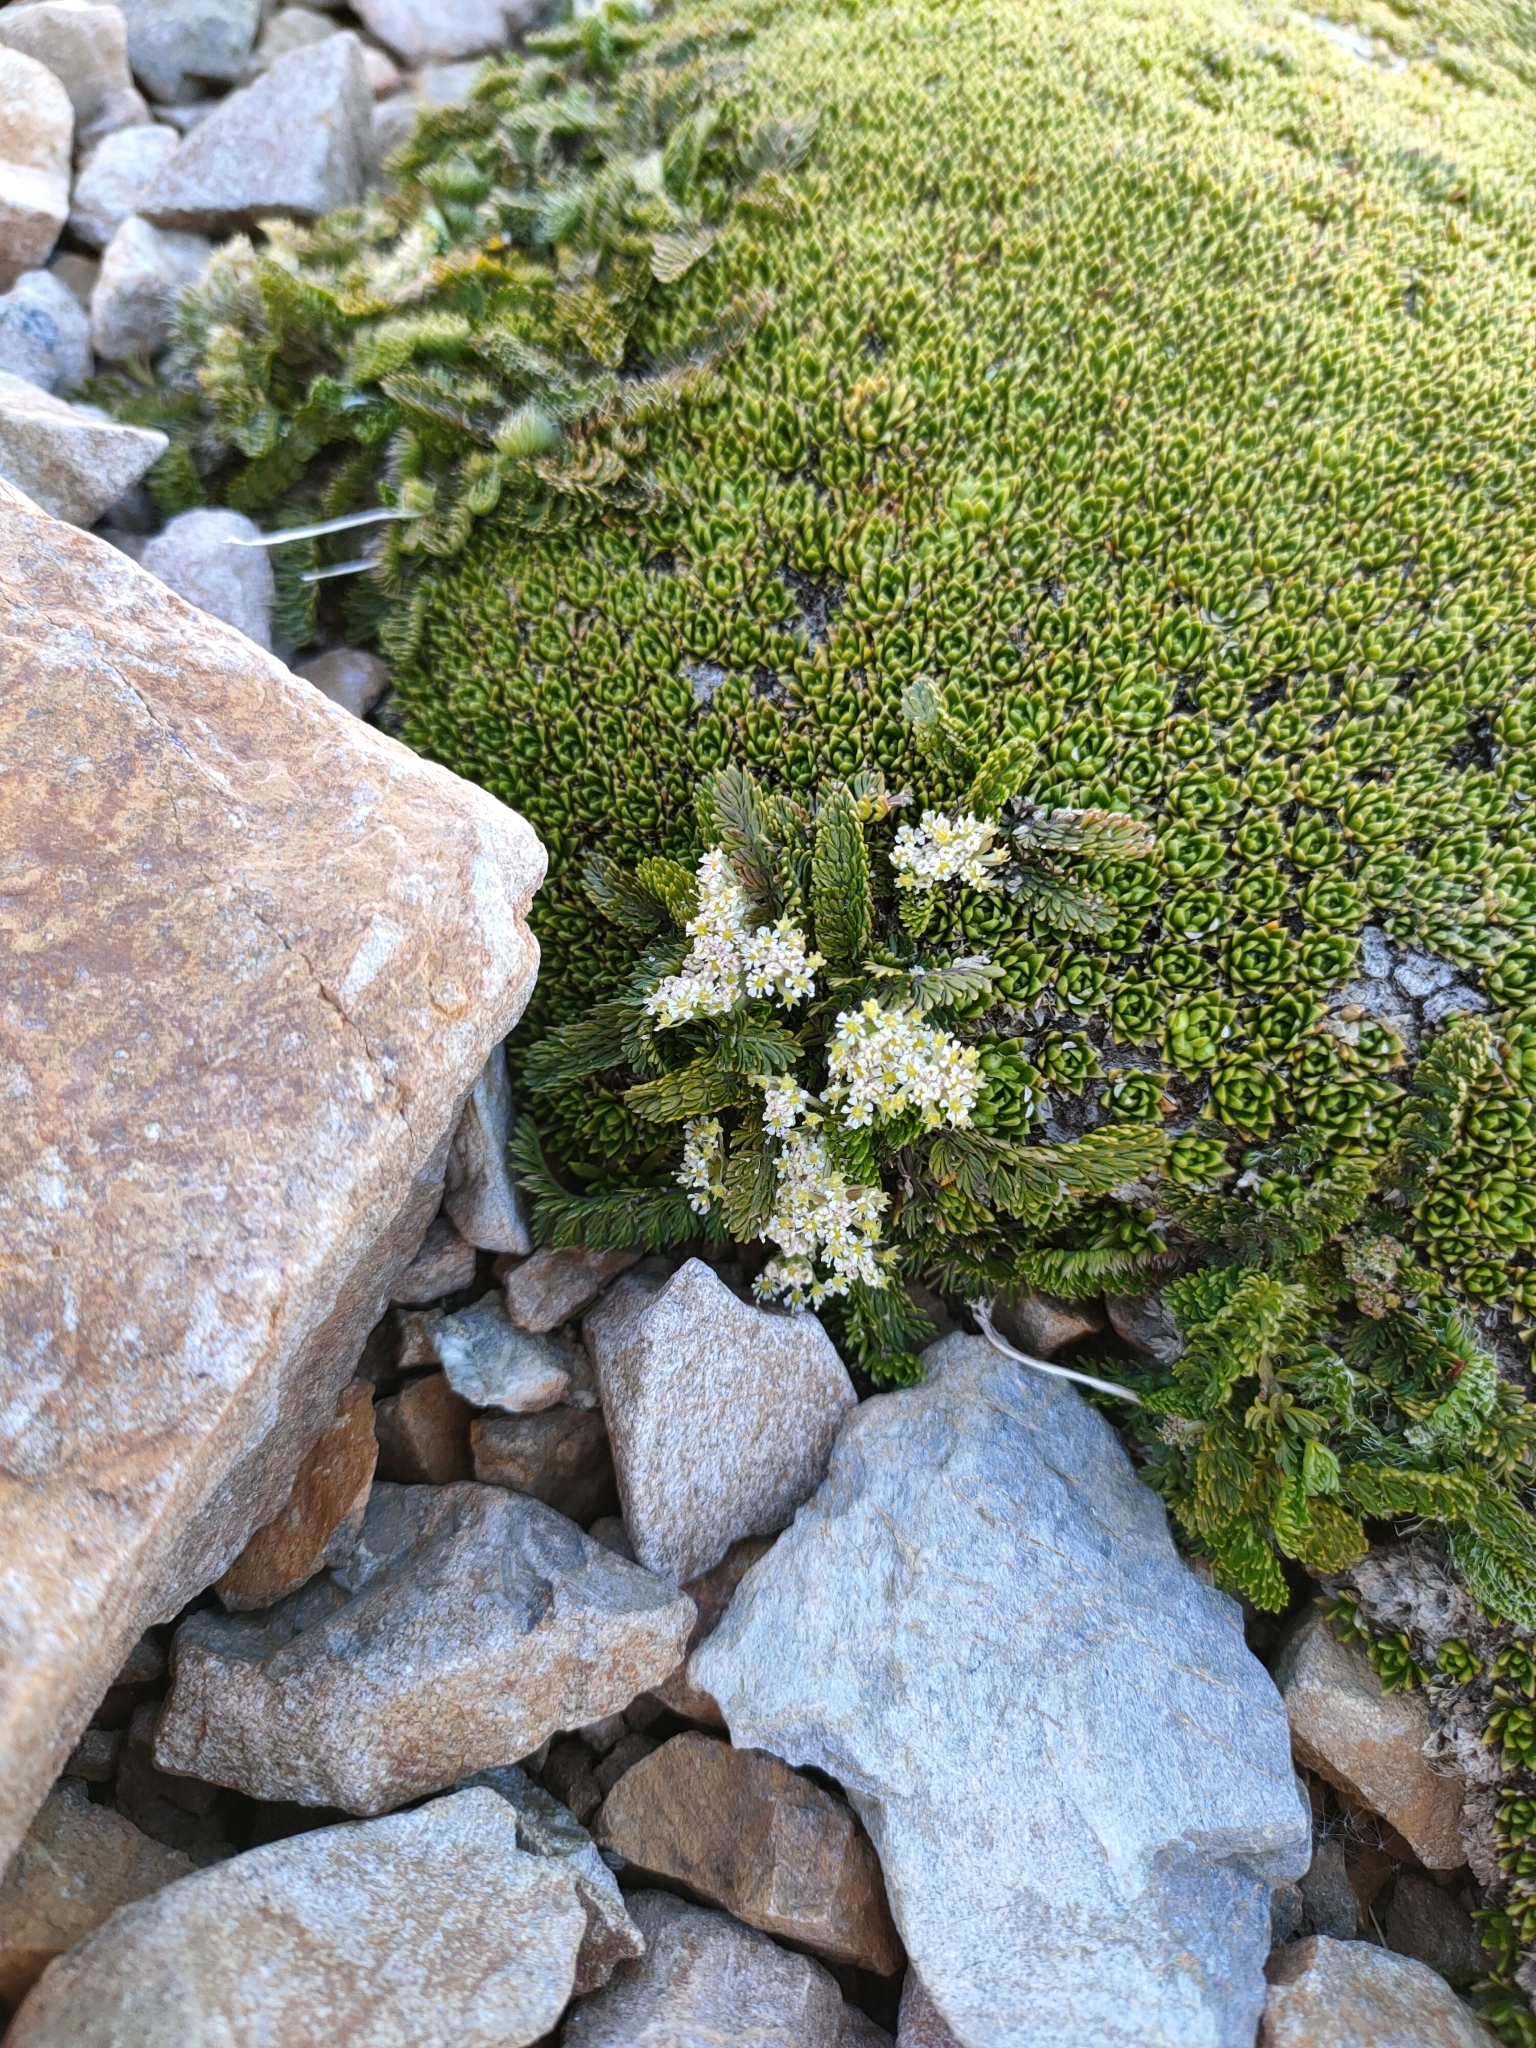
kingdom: Plantae
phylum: Tracheophyta
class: Magnoliopsida
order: Apiales
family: Apiaceae
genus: Anisotome
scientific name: Anisotome flexuosa
